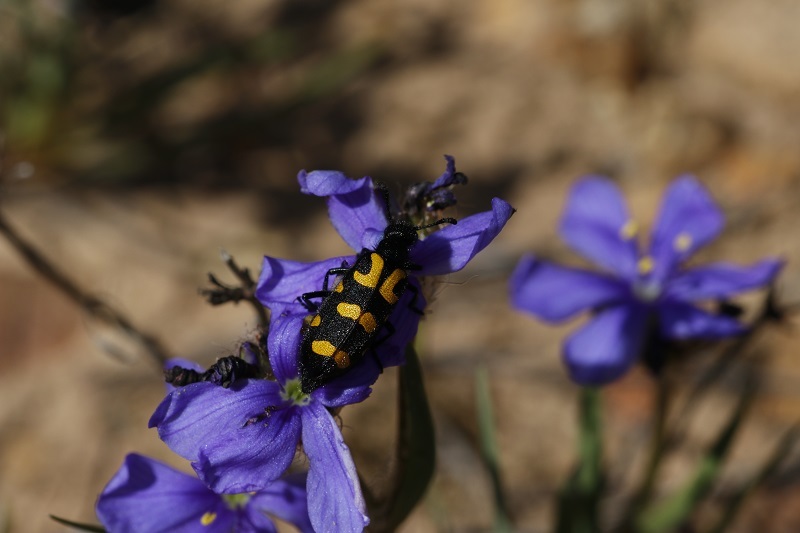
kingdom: Animalia
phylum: Arthropoda
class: Insecta
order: Coleoptera
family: Meloidae
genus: Ceroctis
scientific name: Ceroctis capensis
